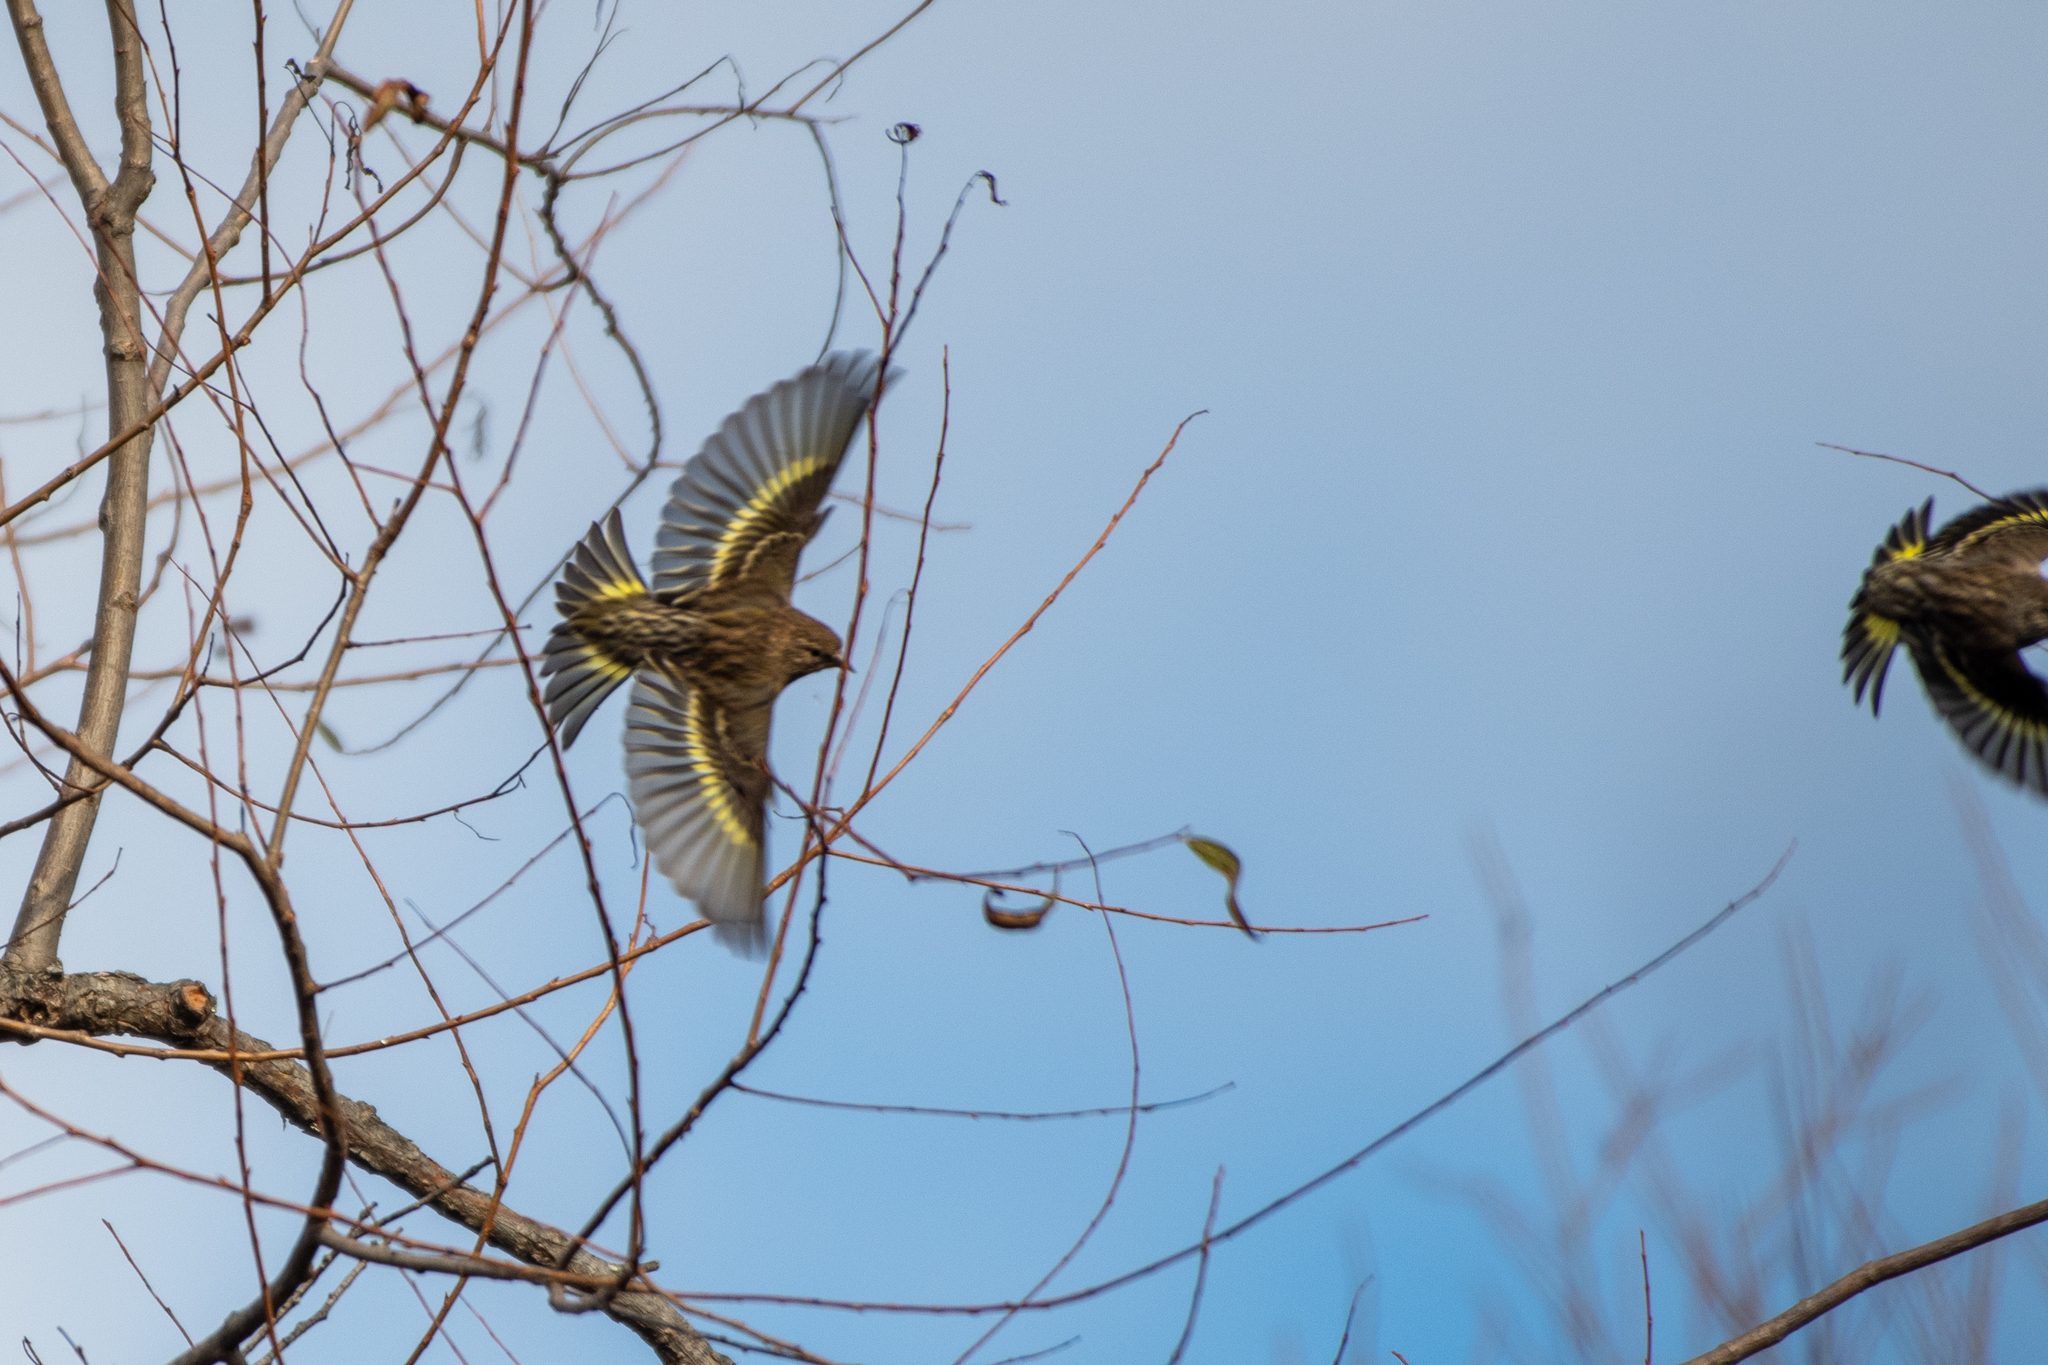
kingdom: Animalia
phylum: Chordata
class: Aves
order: Passeriformes
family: Fringillidae
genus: Spinus
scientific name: Spinus pinus
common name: Pine siskin
